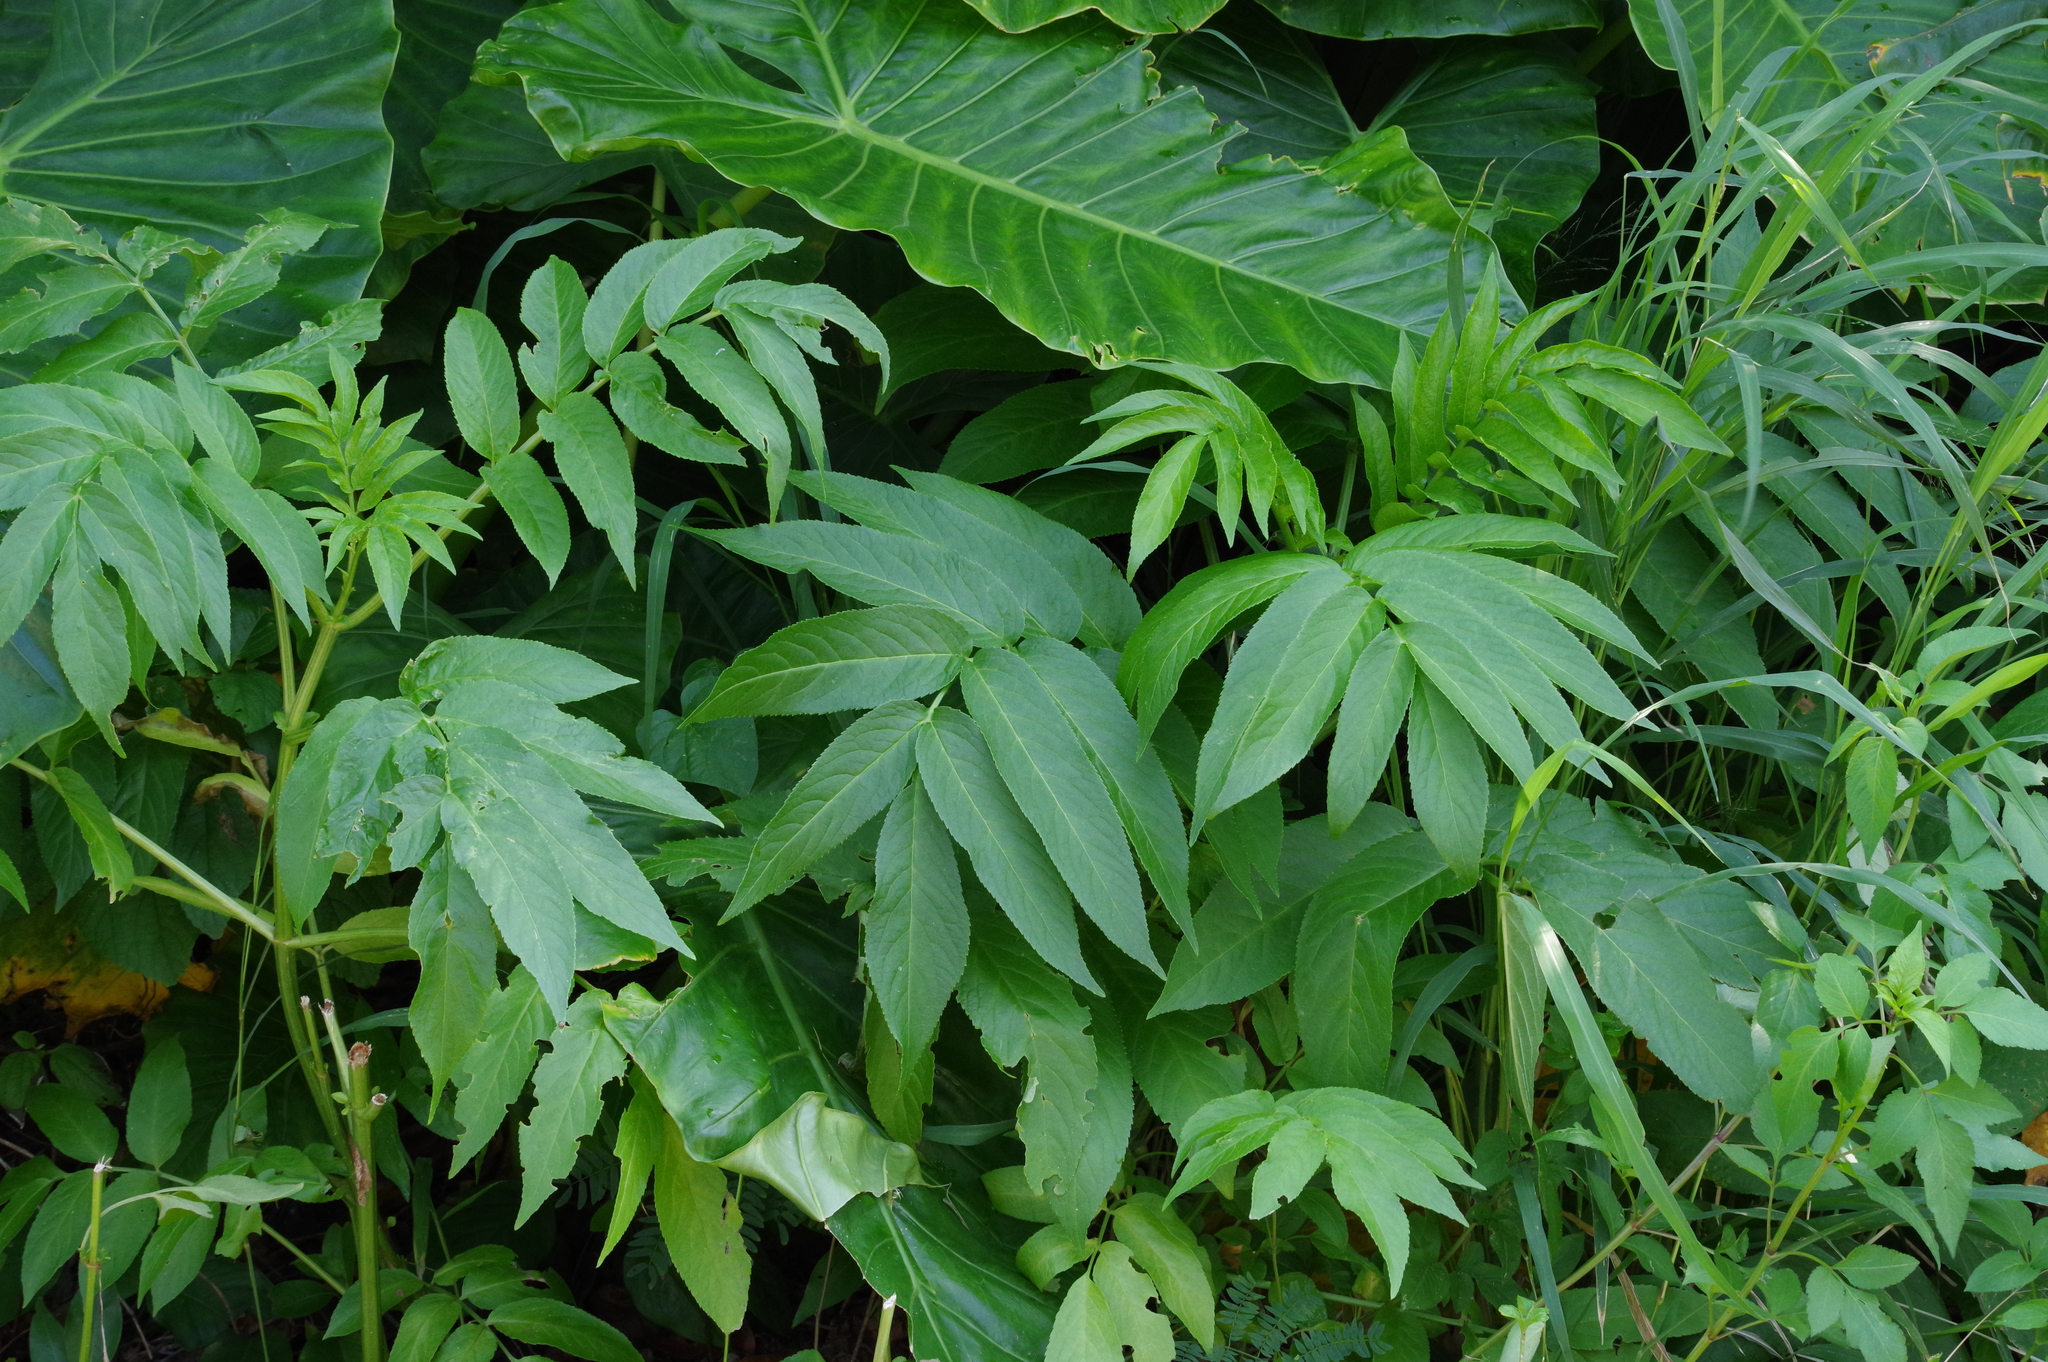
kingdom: Plantae
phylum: Tracheophyta
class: Magnoliopsida
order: Dipsacales
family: Viburnaceae
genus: Sambucus
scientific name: Sambucus javanica
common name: Chinese elder
